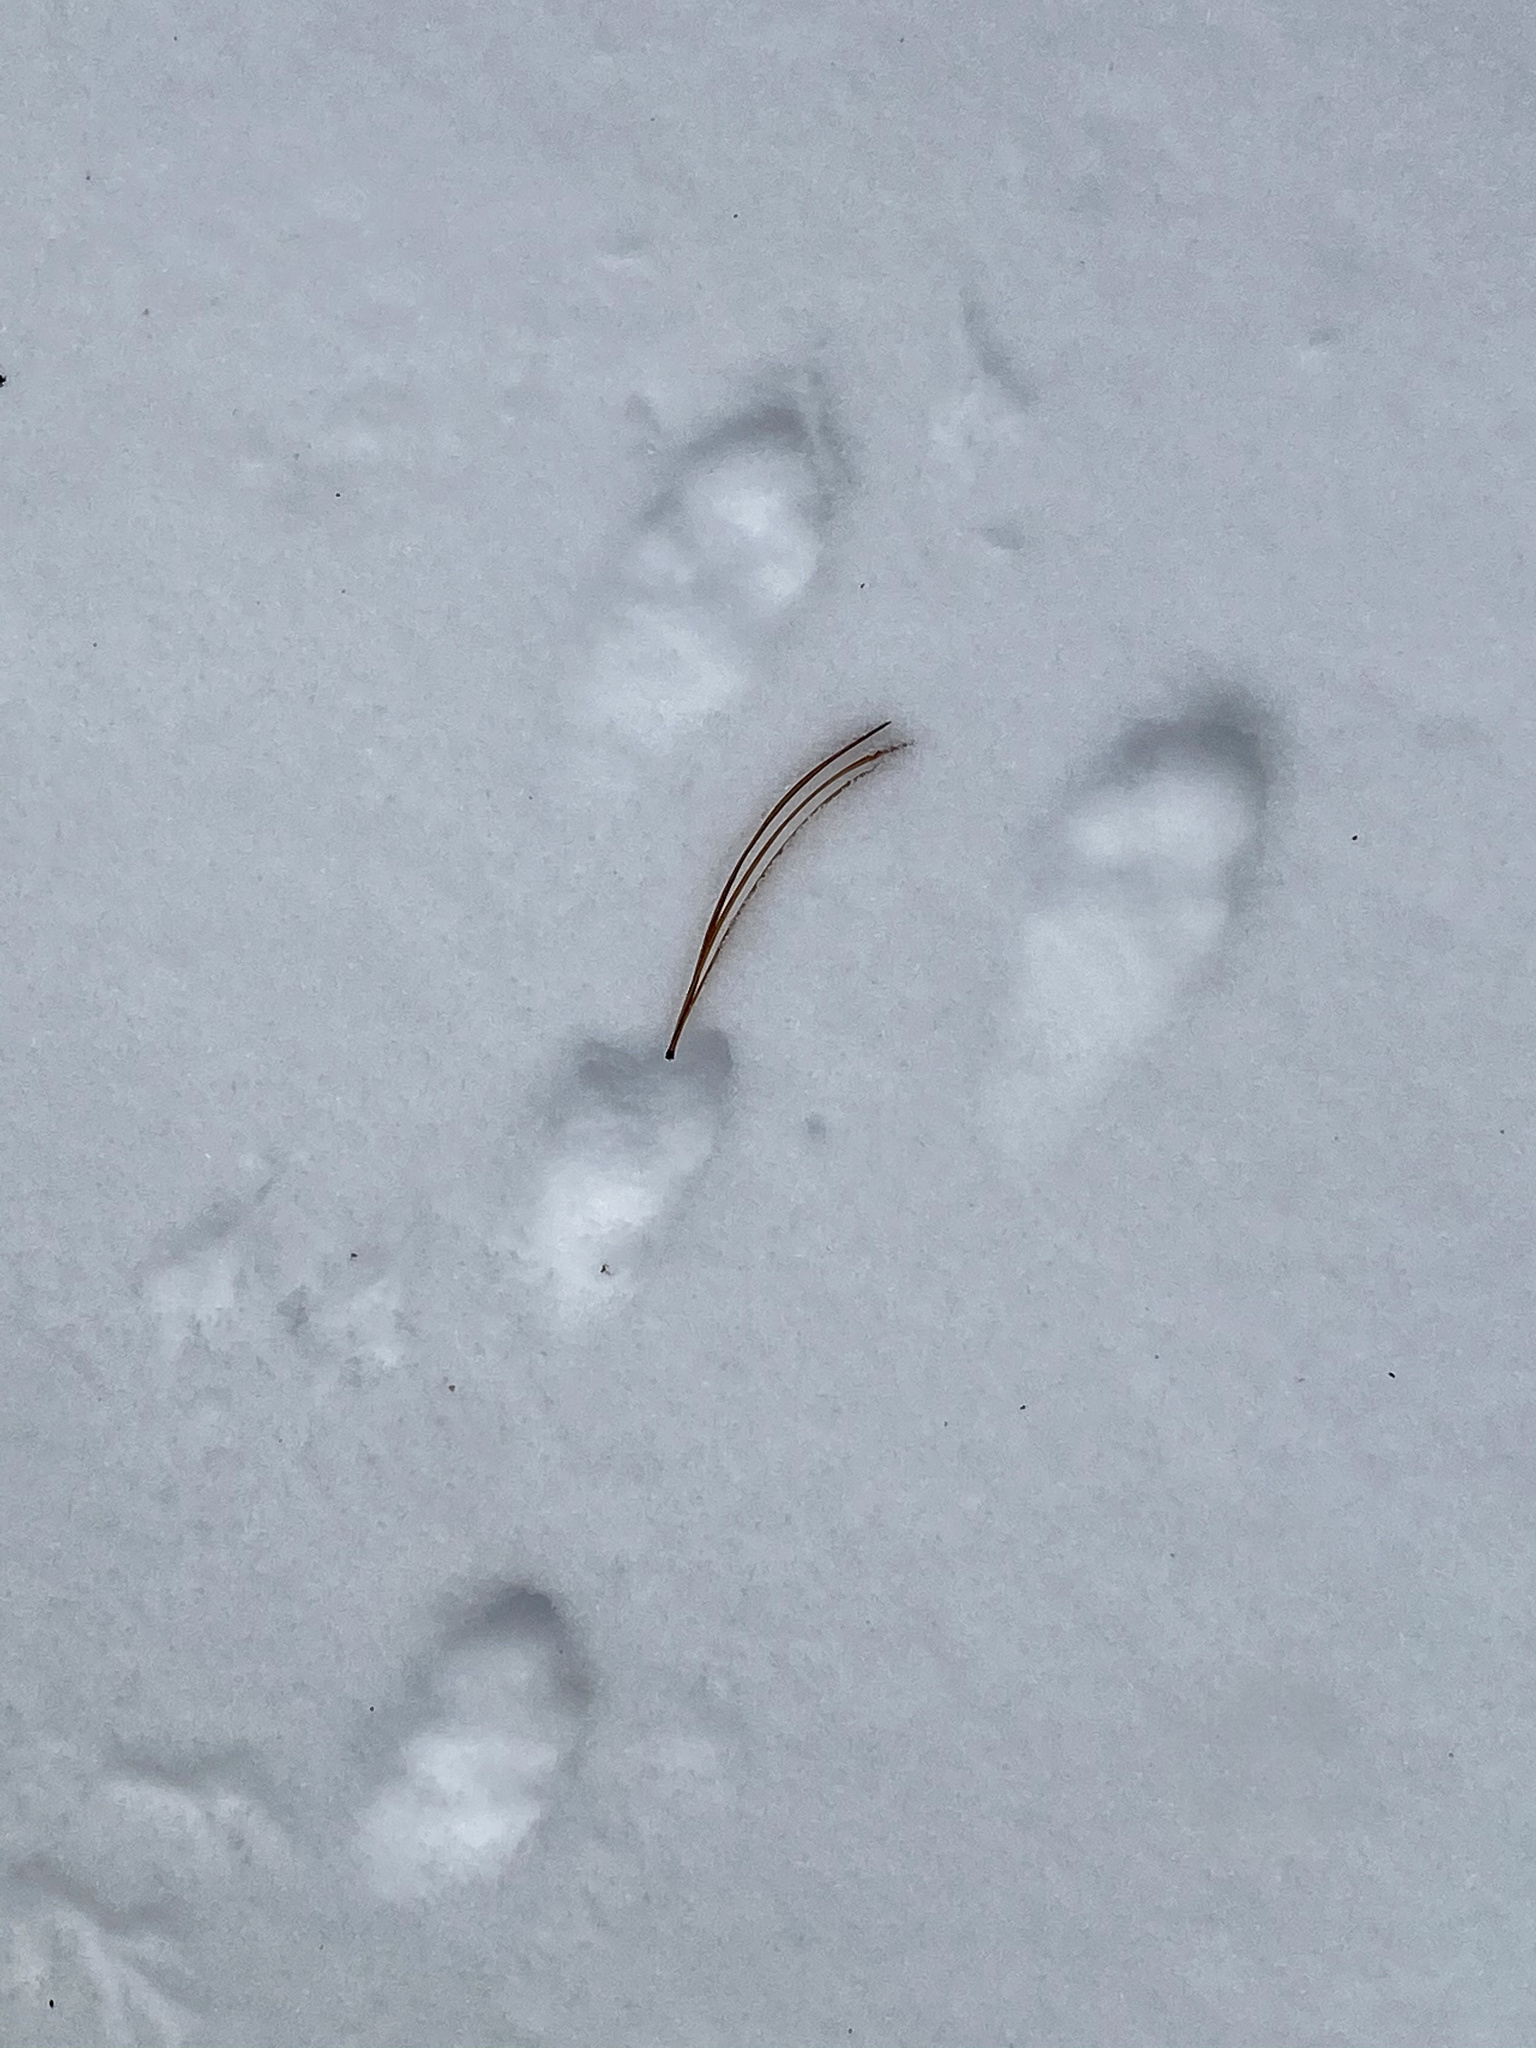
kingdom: Animalia
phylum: Chordata
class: Mammalia
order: Lagomorpha
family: Leporidae
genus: Sylvilagus
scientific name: Sylvilagus floridanus
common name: Eastern cottontail
